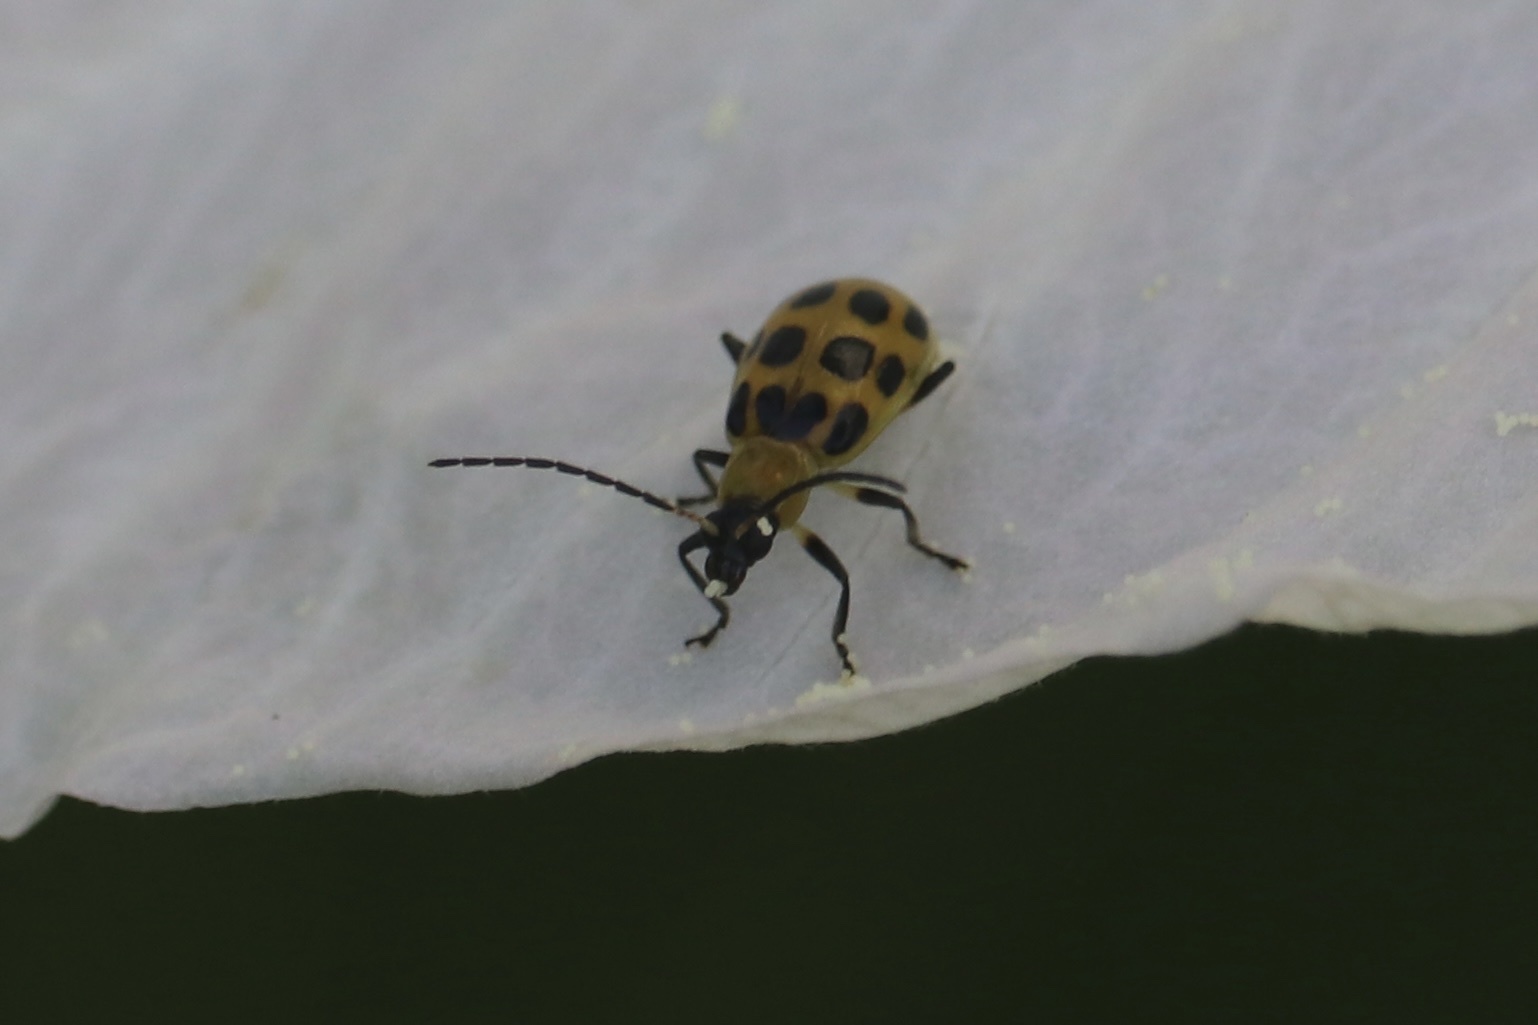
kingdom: Animalia
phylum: Arthropoda
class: Insecta
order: Coleoptera
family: Chrysomelidae
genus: Diabrotica
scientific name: Diabrotica undecimpunctata
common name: Spotted cucumber beetle
